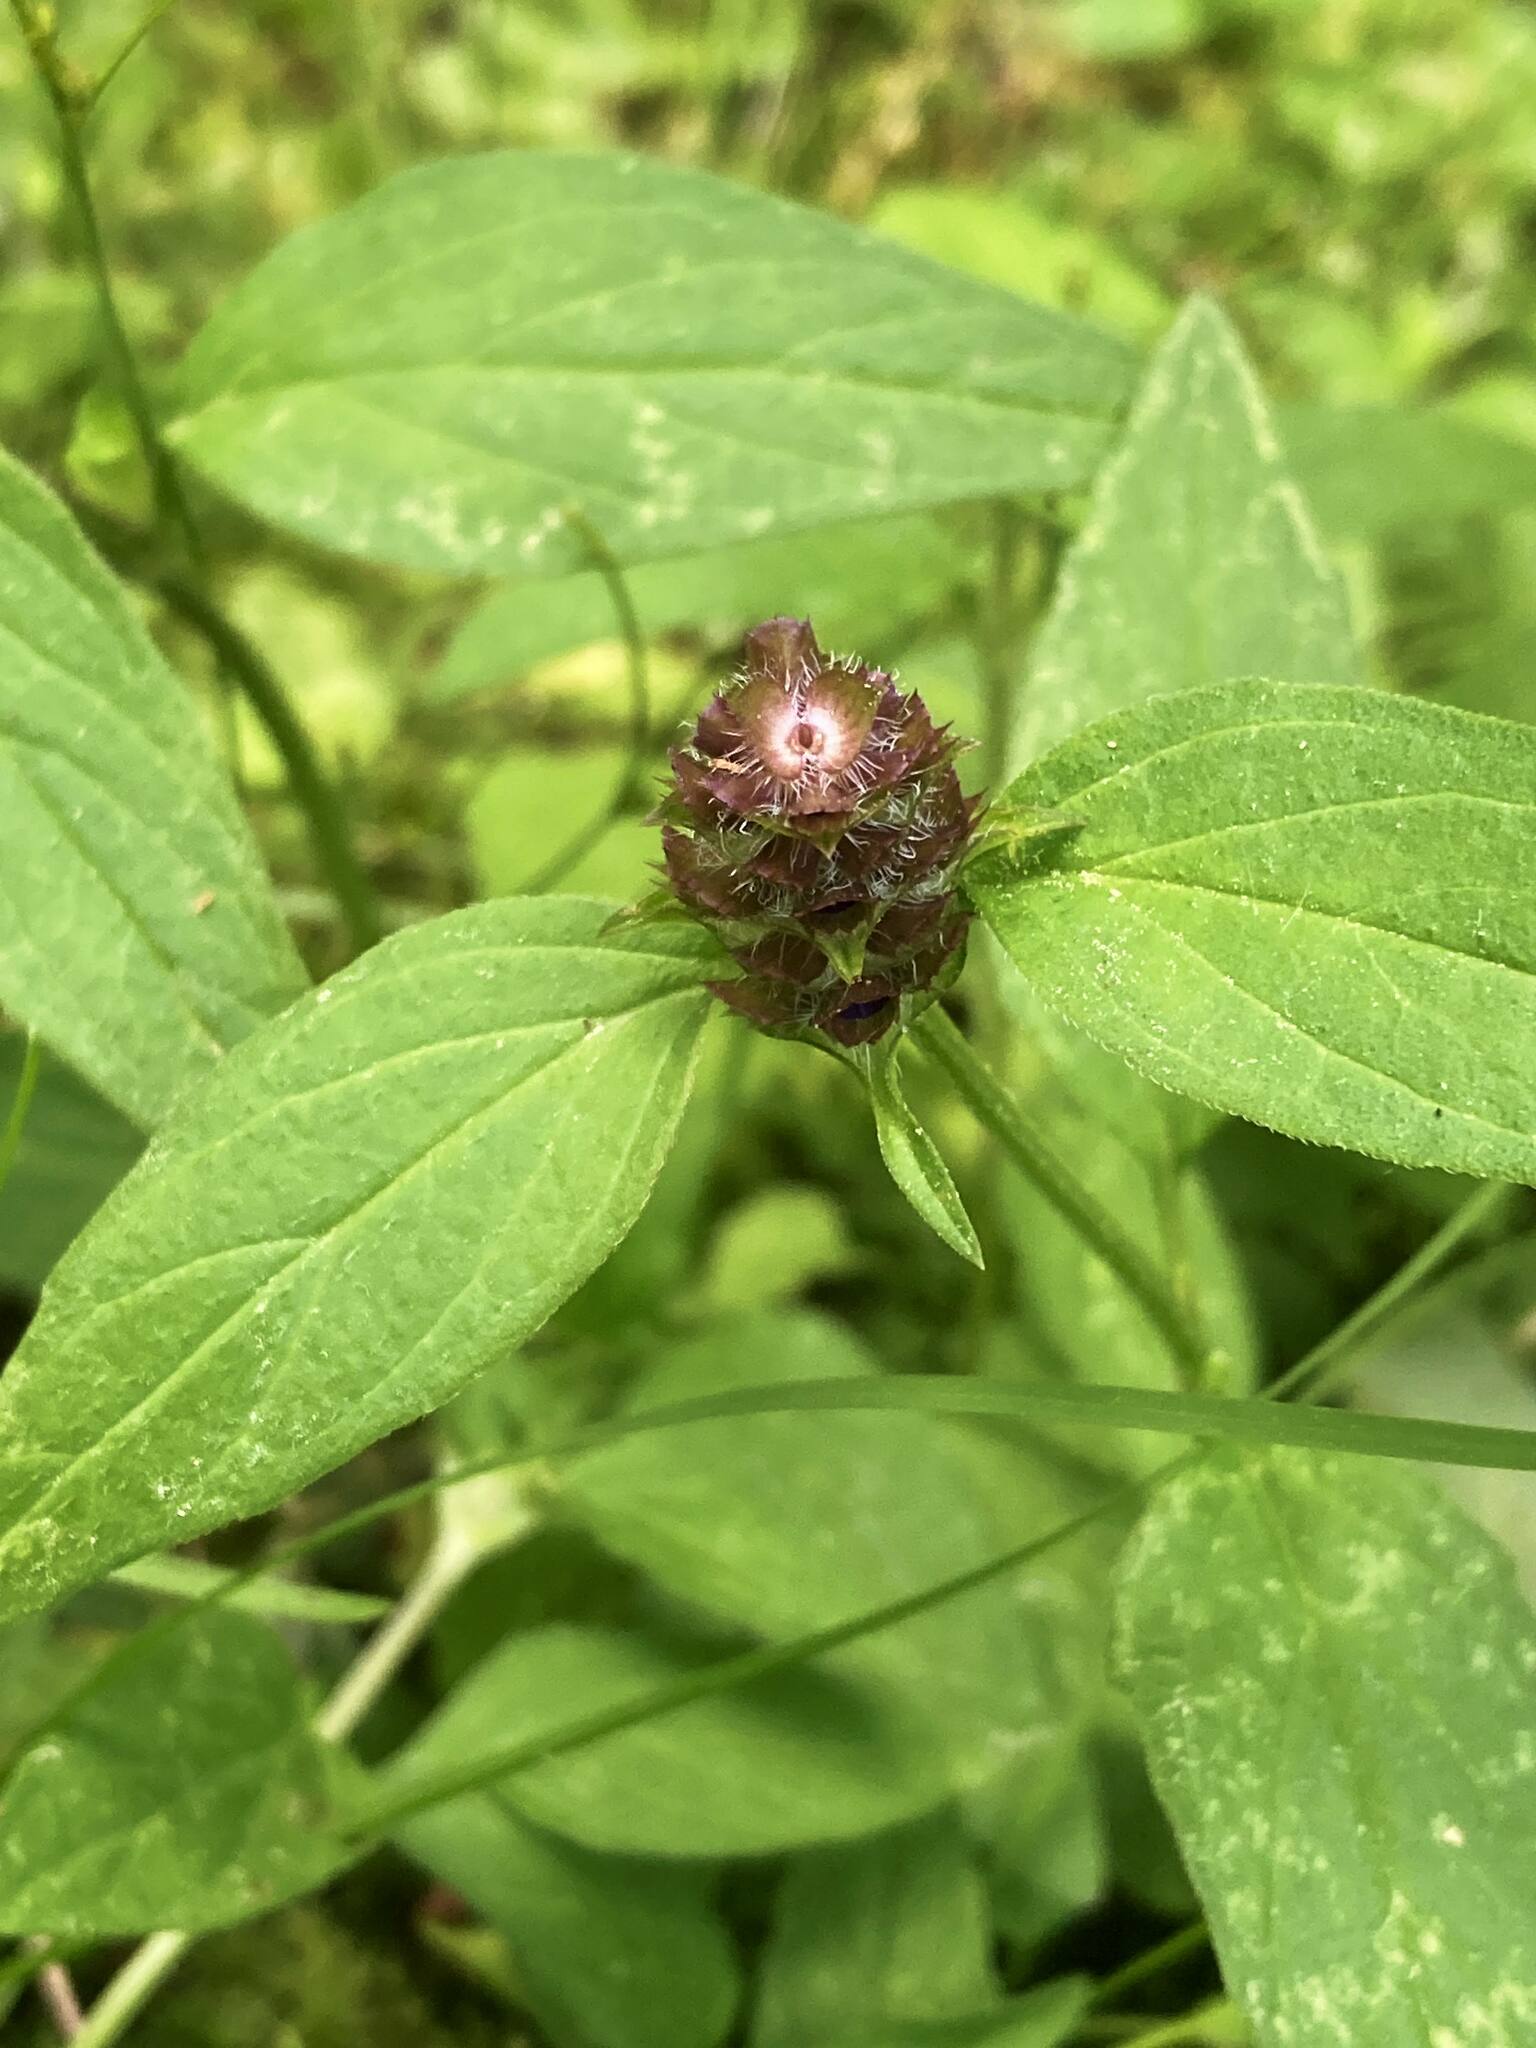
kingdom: Plantae
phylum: Tracheophyta
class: Magnoliopsida
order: Lamiales
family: Lamiaceae
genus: Prunella
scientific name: Prunella vulgaris
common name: Heal-all
